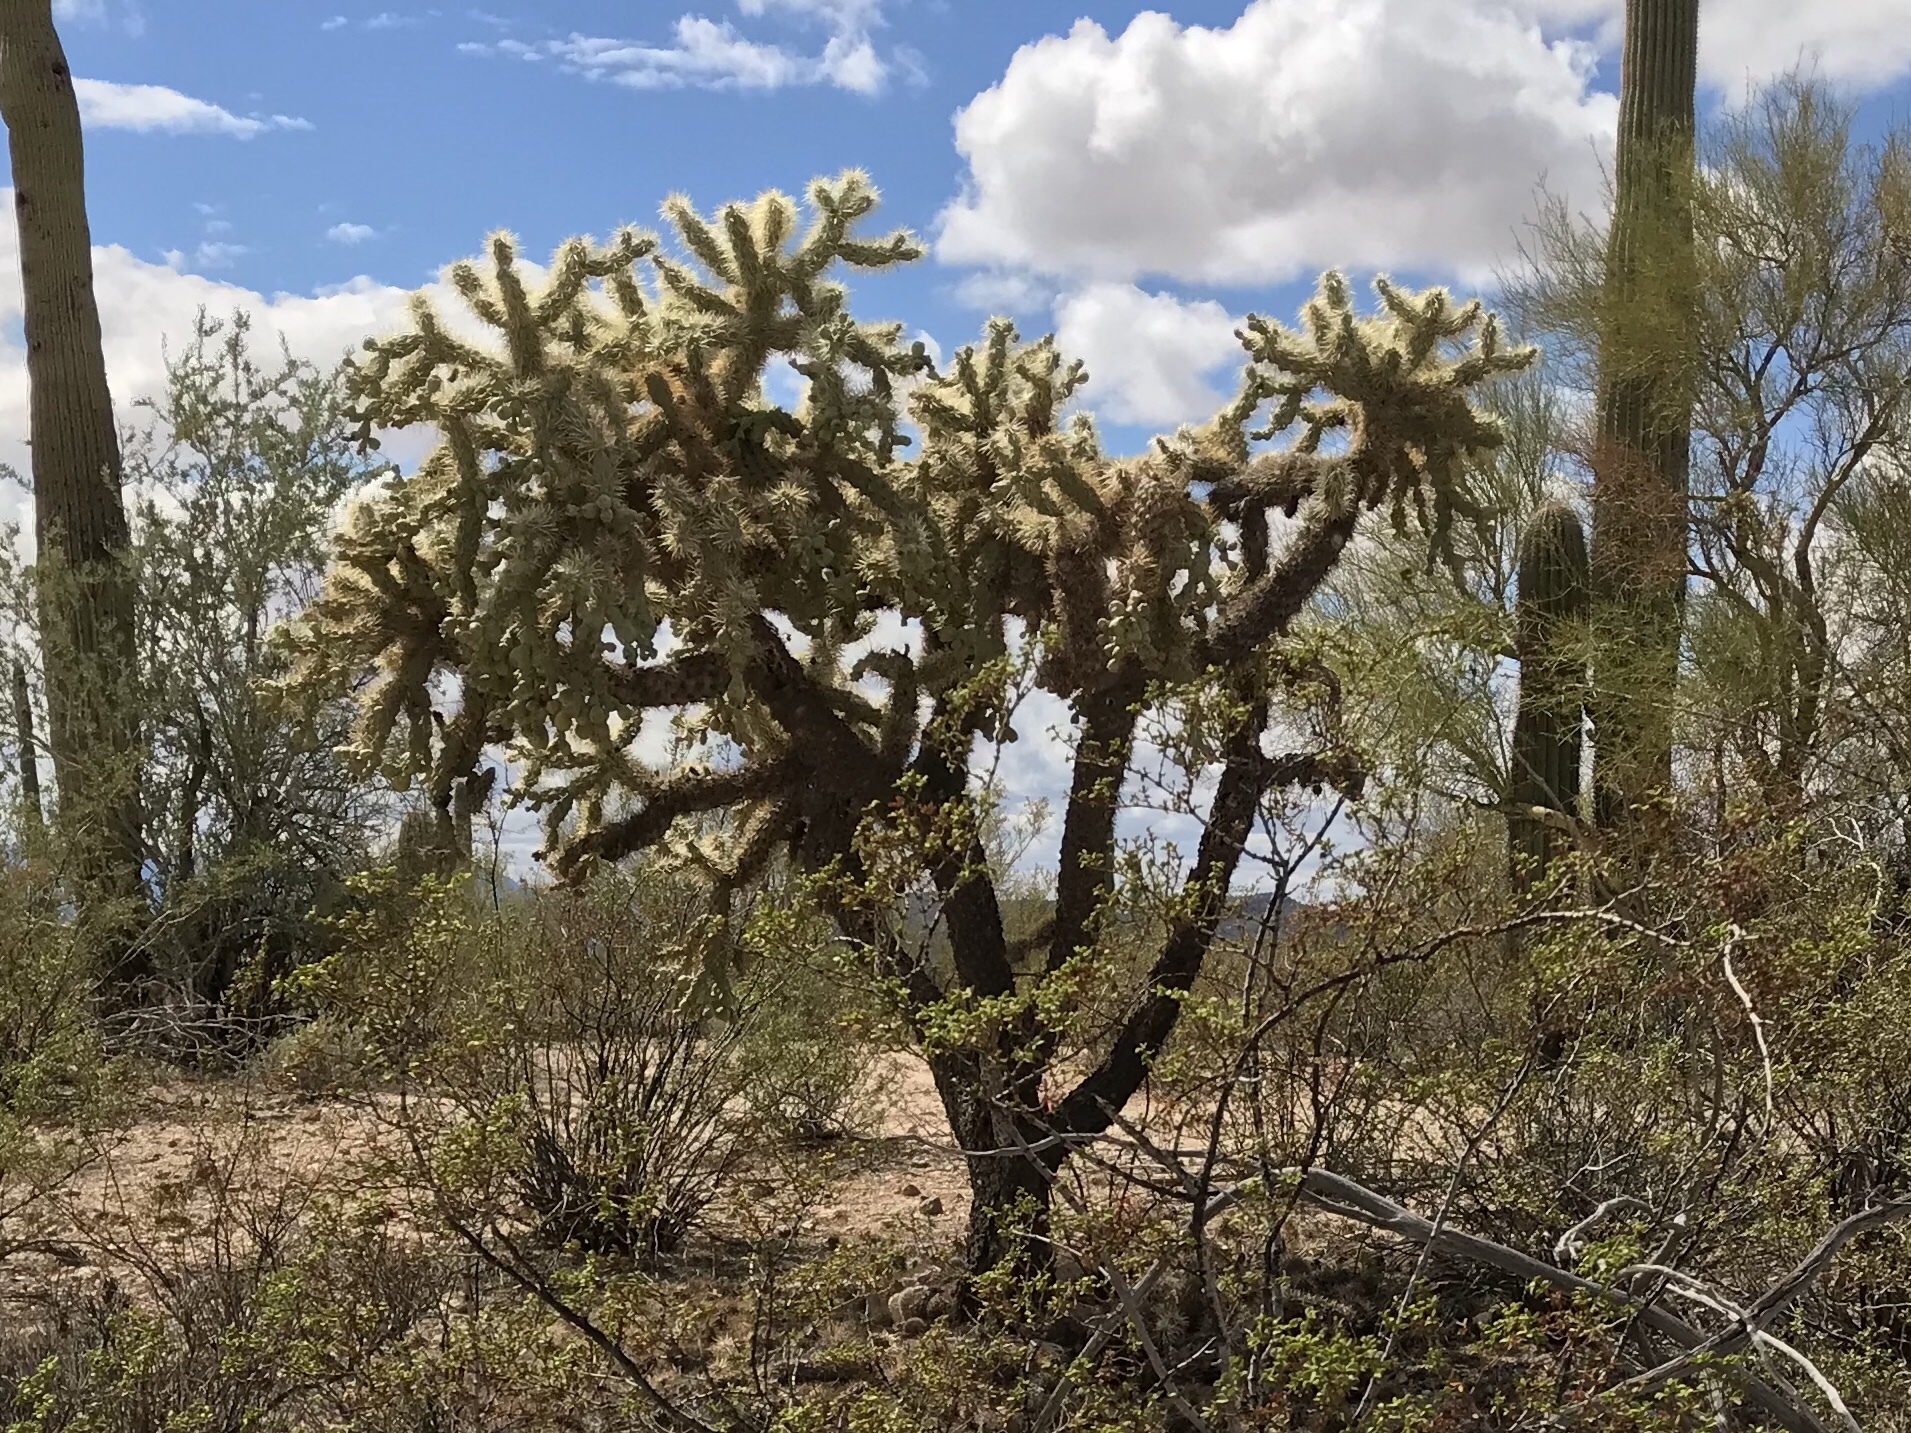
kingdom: Plantae
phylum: Tracheophyta
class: Magnoliopsida
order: Caryophyllales
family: Cactaceae
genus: Cylindropuntia
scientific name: Cylindropuntia fulgida
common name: Jumping cholla
